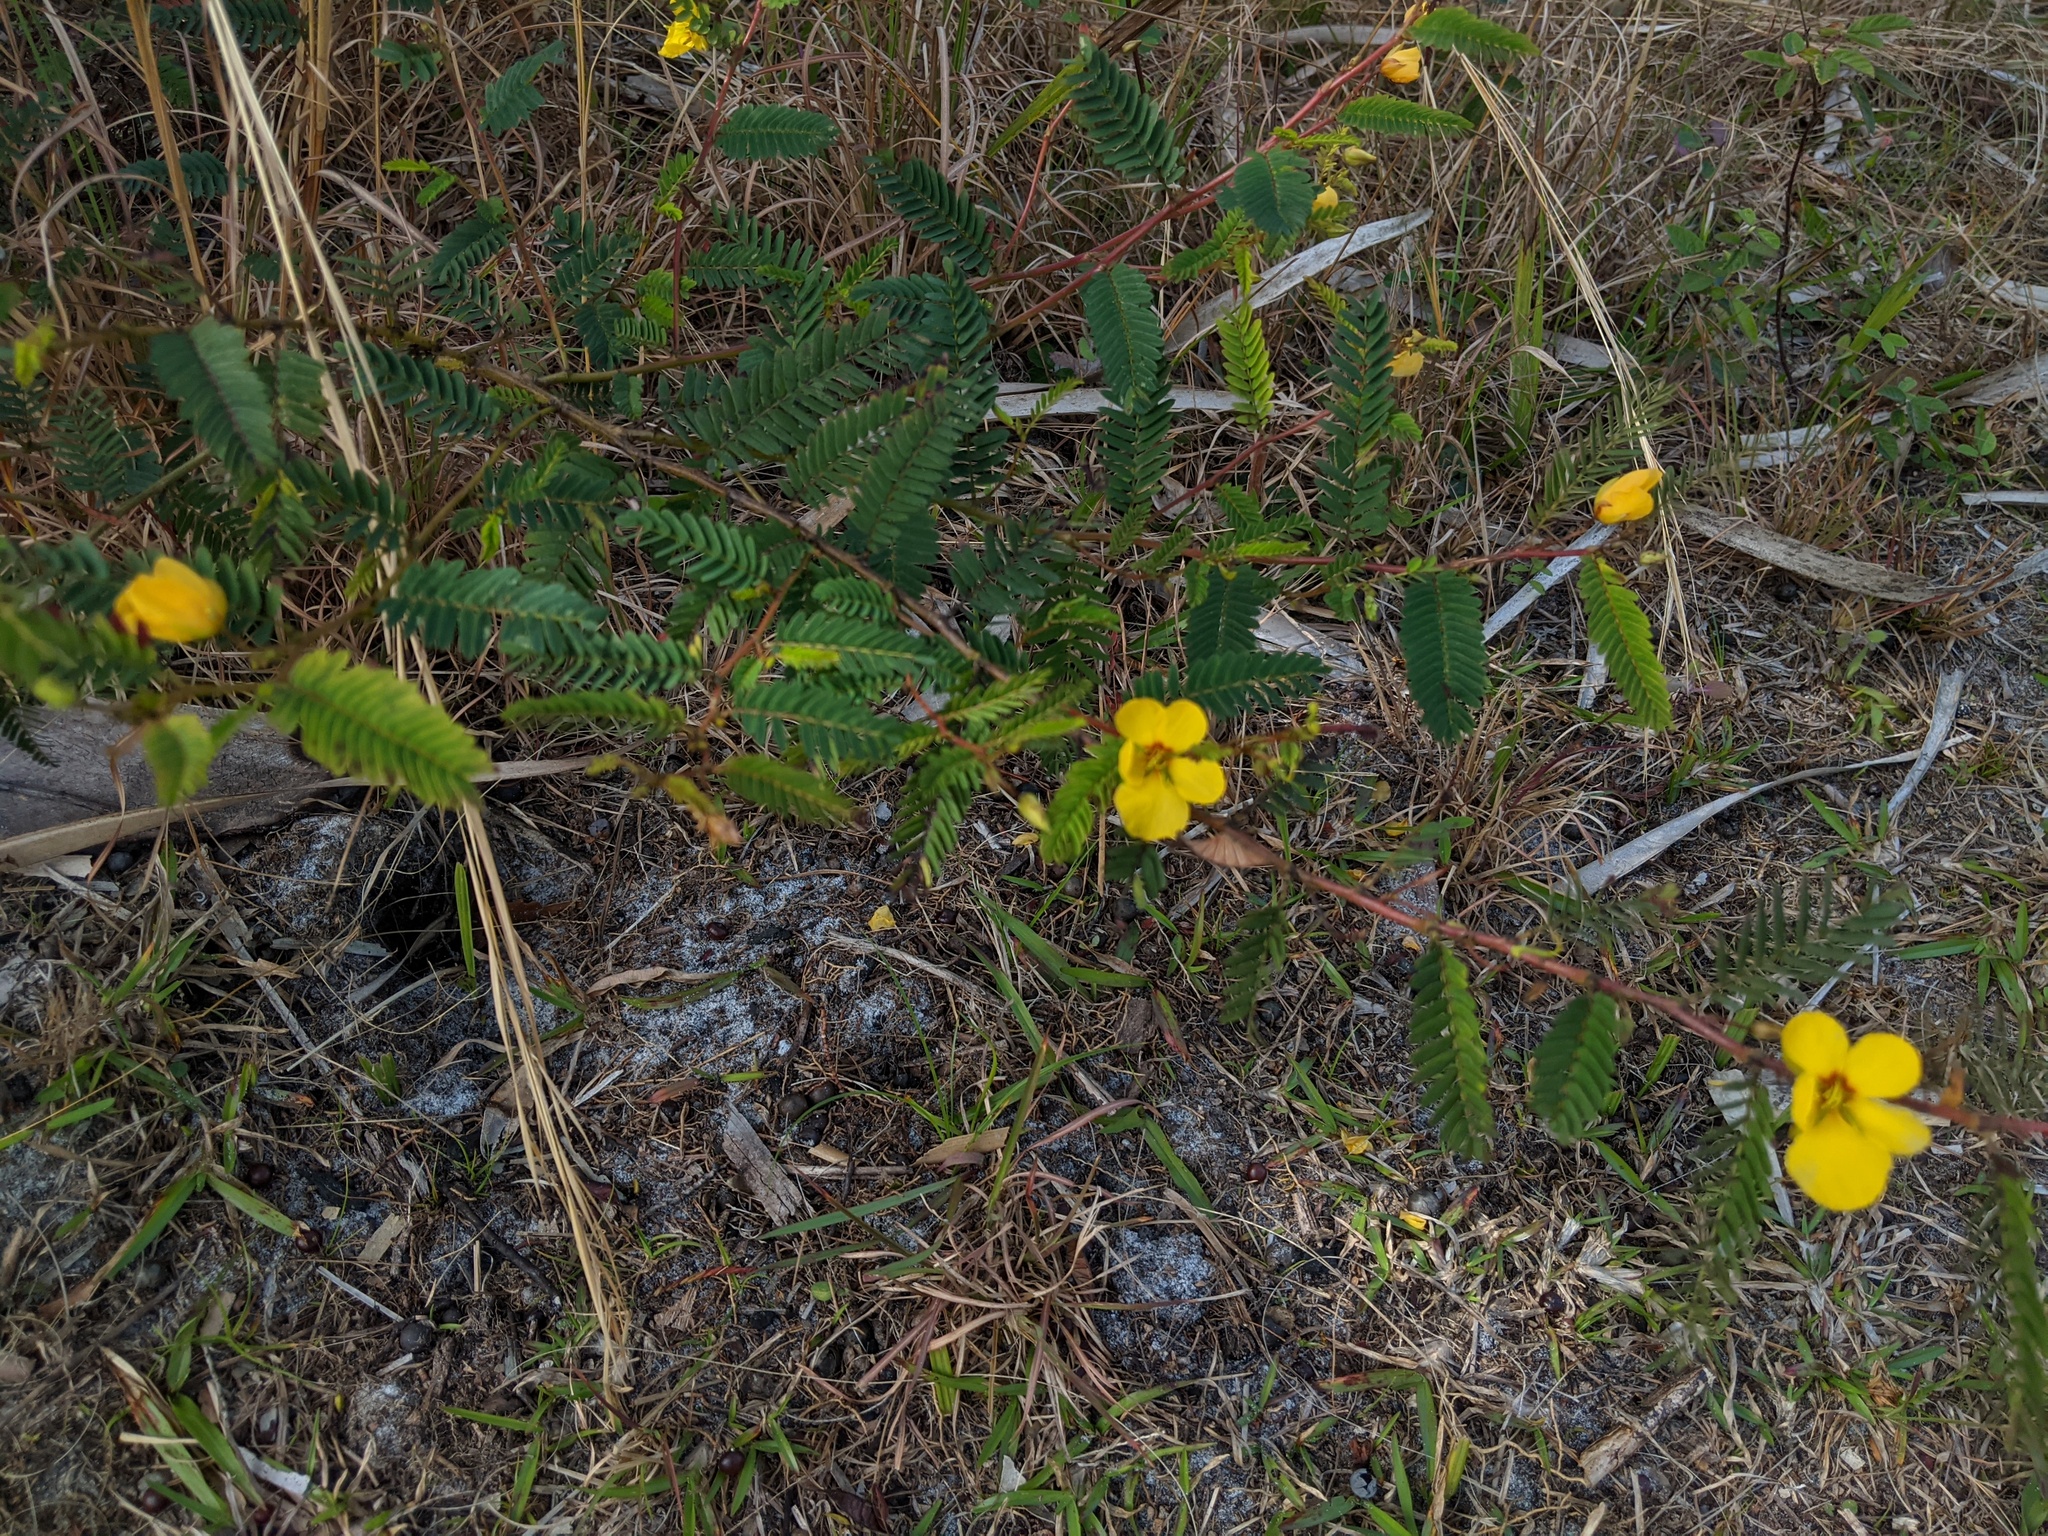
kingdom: Plantae
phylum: Tracheophyta
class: Magnoliopsida
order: Fabales
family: Fabaceae
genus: Chamaecrista
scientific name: Chamaecrista fasciculata
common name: Golden cassia
